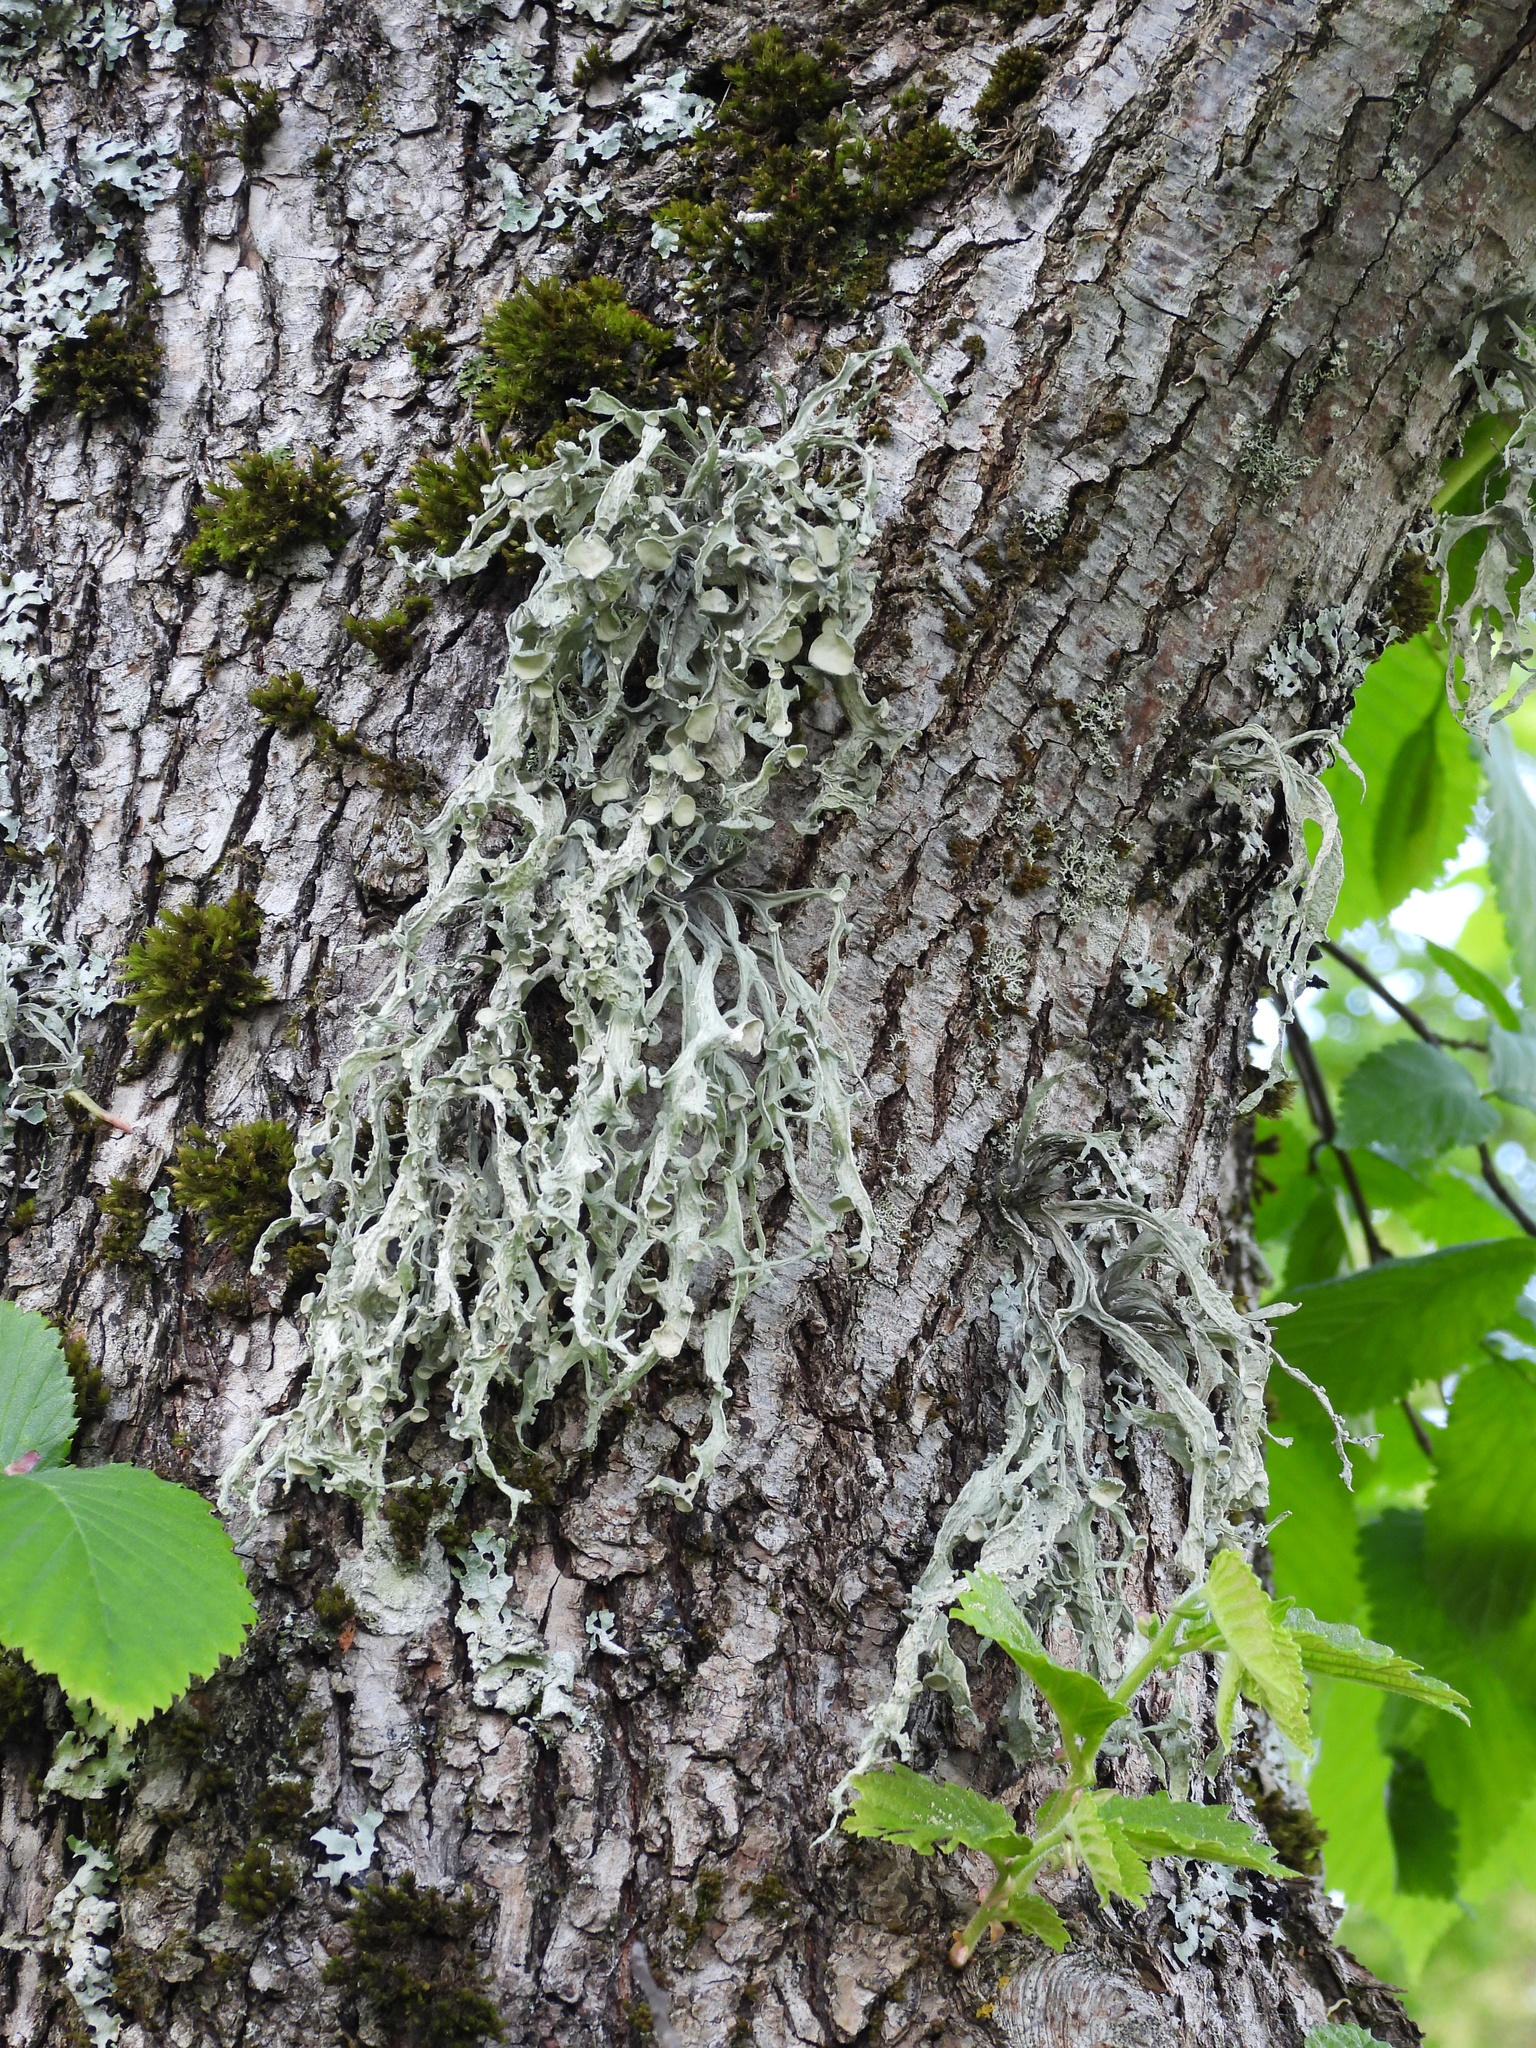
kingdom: Fungi
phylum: Ascomycota
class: Lecanoromycetes
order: Lecanorales
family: Ramalinaceae
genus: Ramalina
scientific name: Ramalina fraxinea
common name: Cartilage lichen
